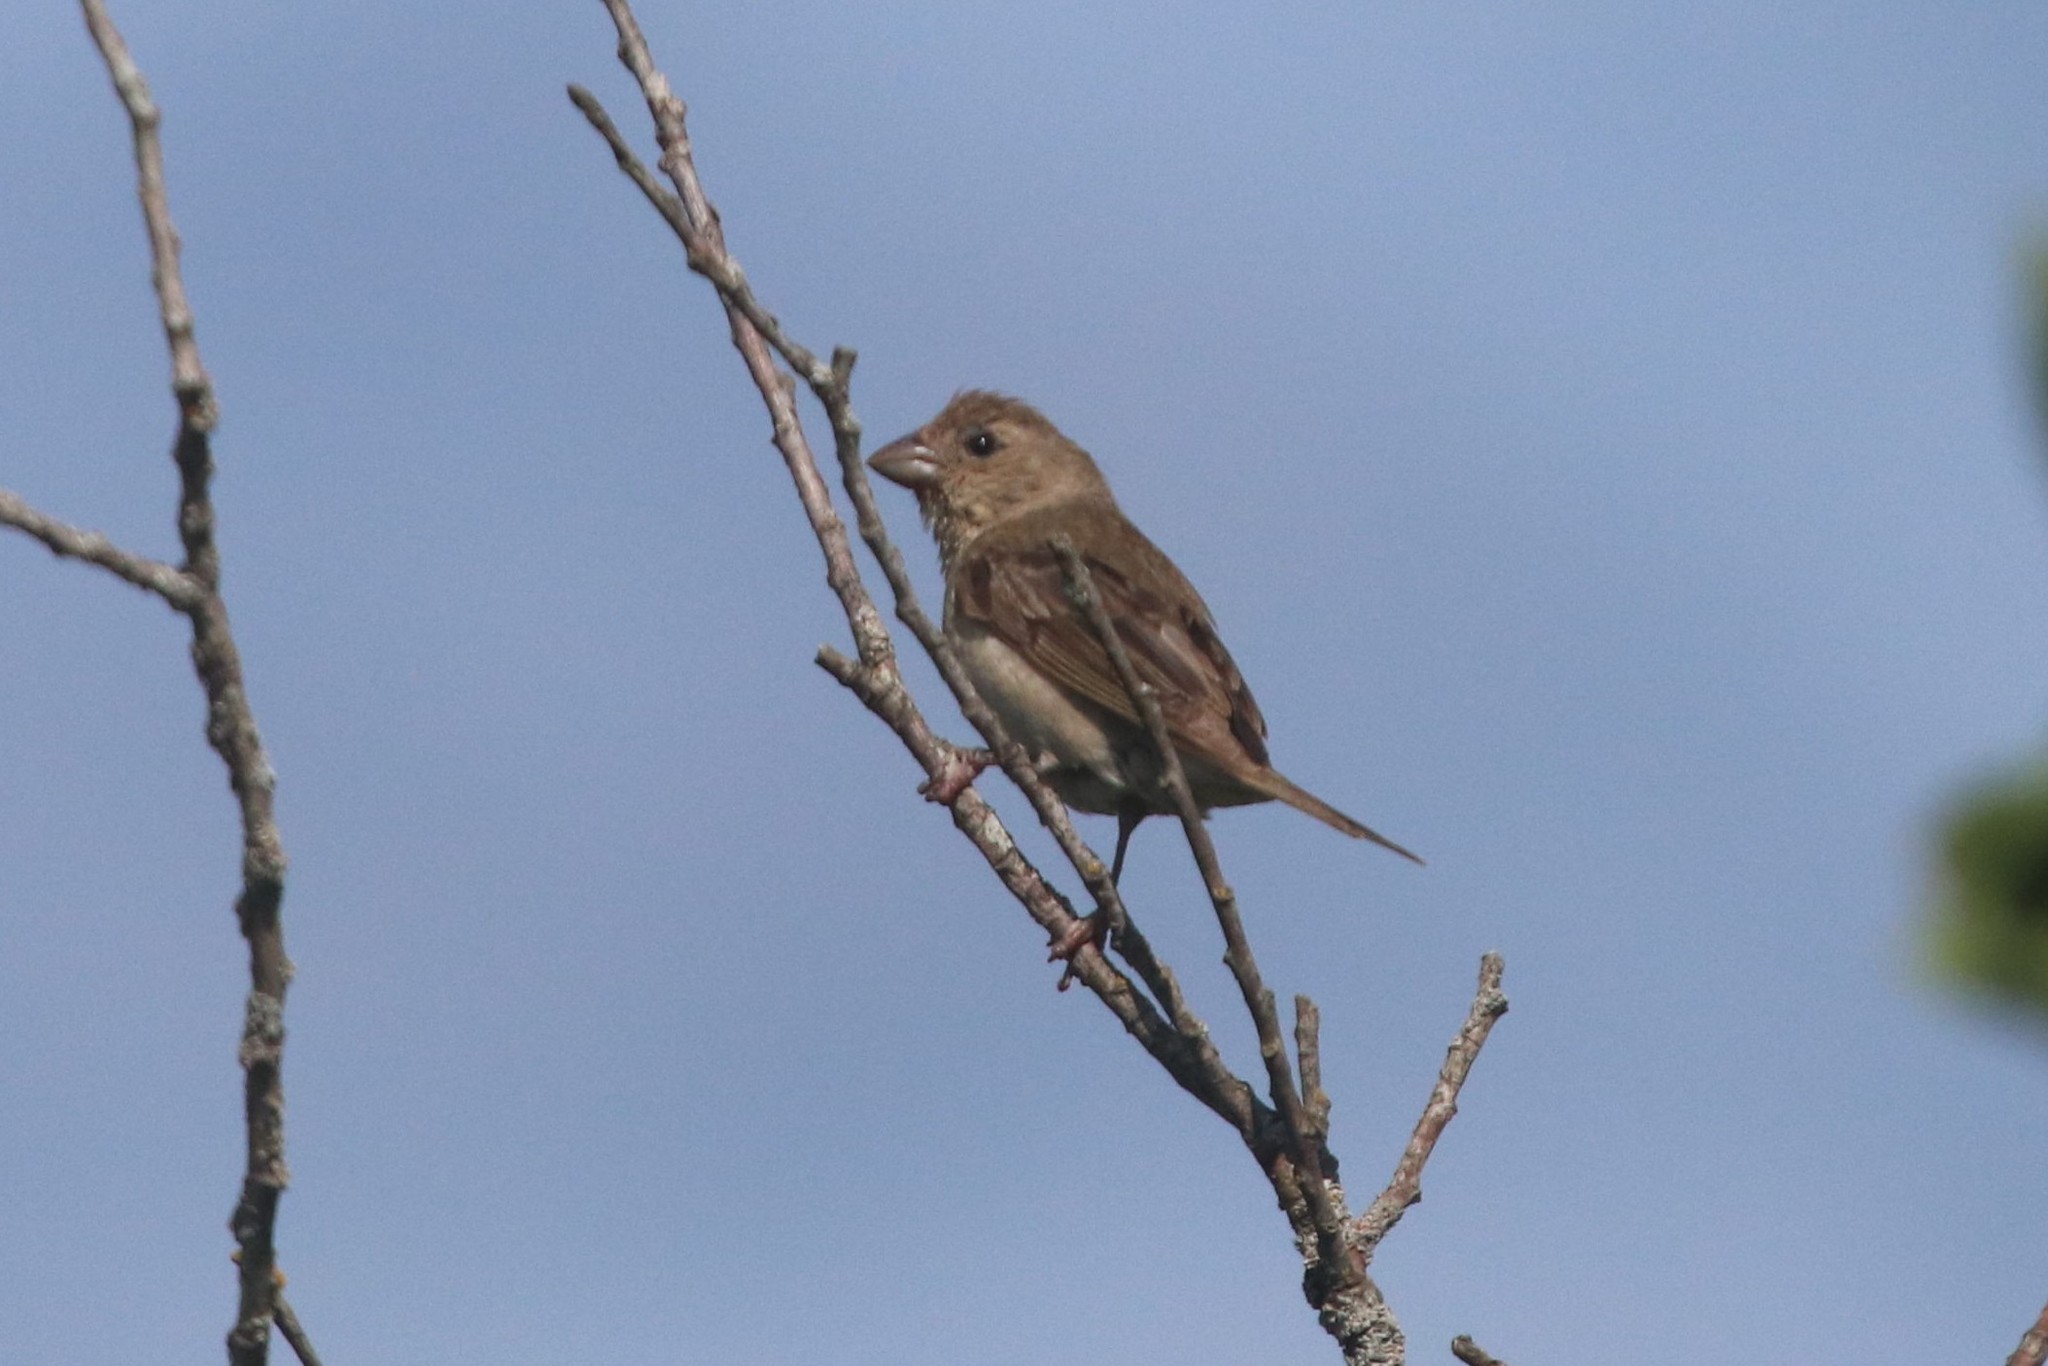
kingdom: Animalia
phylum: Chordata
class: Aves
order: Passeriformes
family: Fringillidae
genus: Carpodacus
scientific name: Carpodacus erythrinus
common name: Common rosefinch
